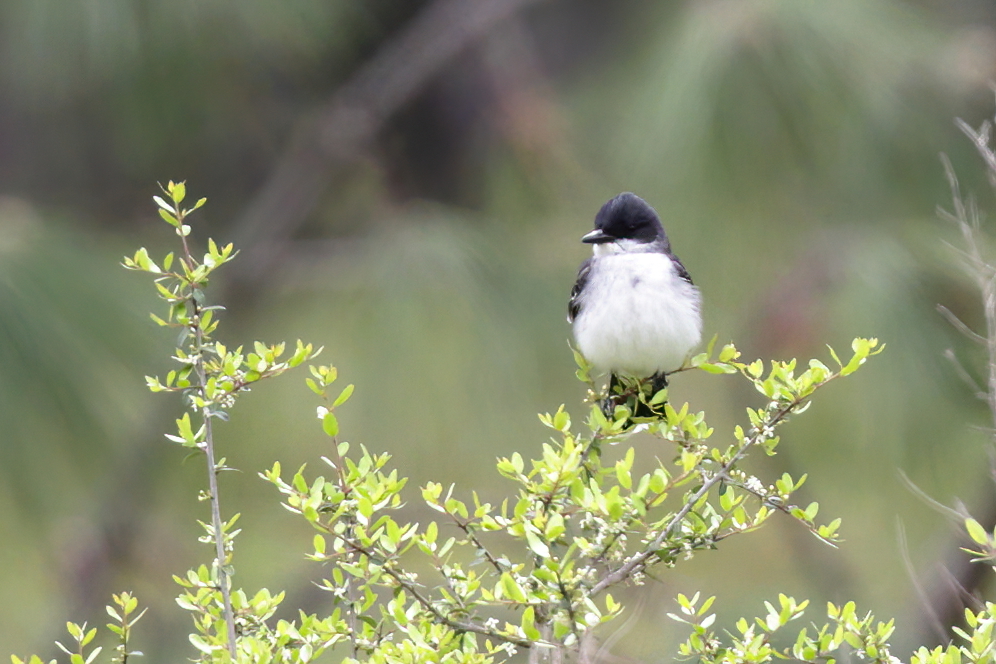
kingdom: Animalia
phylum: Chordata
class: Aves
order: Passeriformes
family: Tyrannidae
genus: Tyrannus
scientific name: Tyrannus tyrannus
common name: Eastern kingbird
